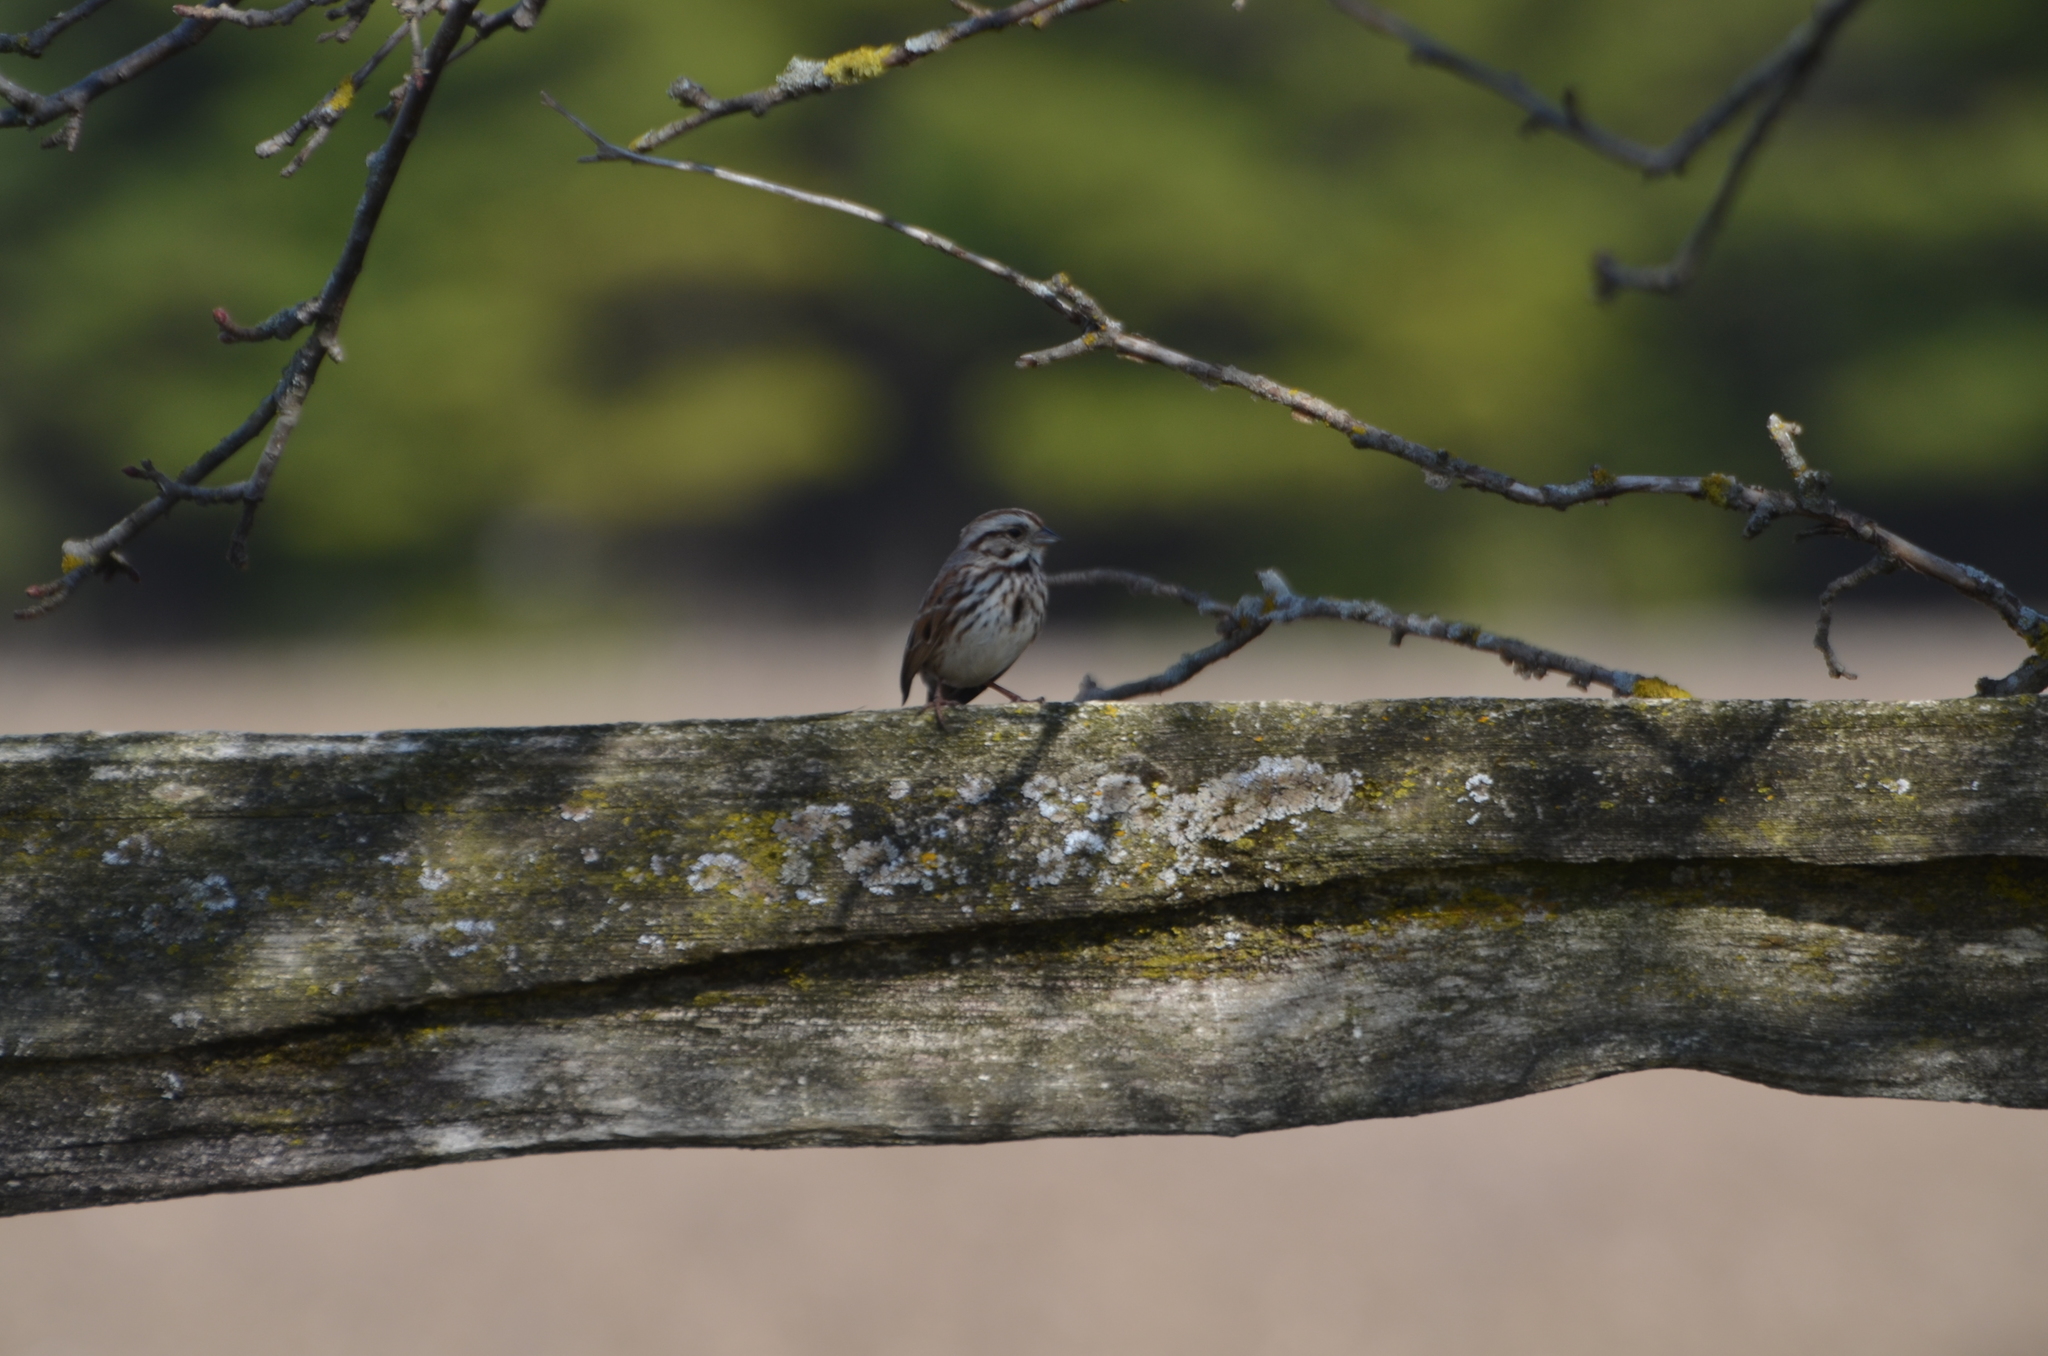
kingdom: Animalia
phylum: Chordata
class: Aves
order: Passeriformes
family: Passerellidae
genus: Melospiza
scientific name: Melospiza melodia
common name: Song sparrow
